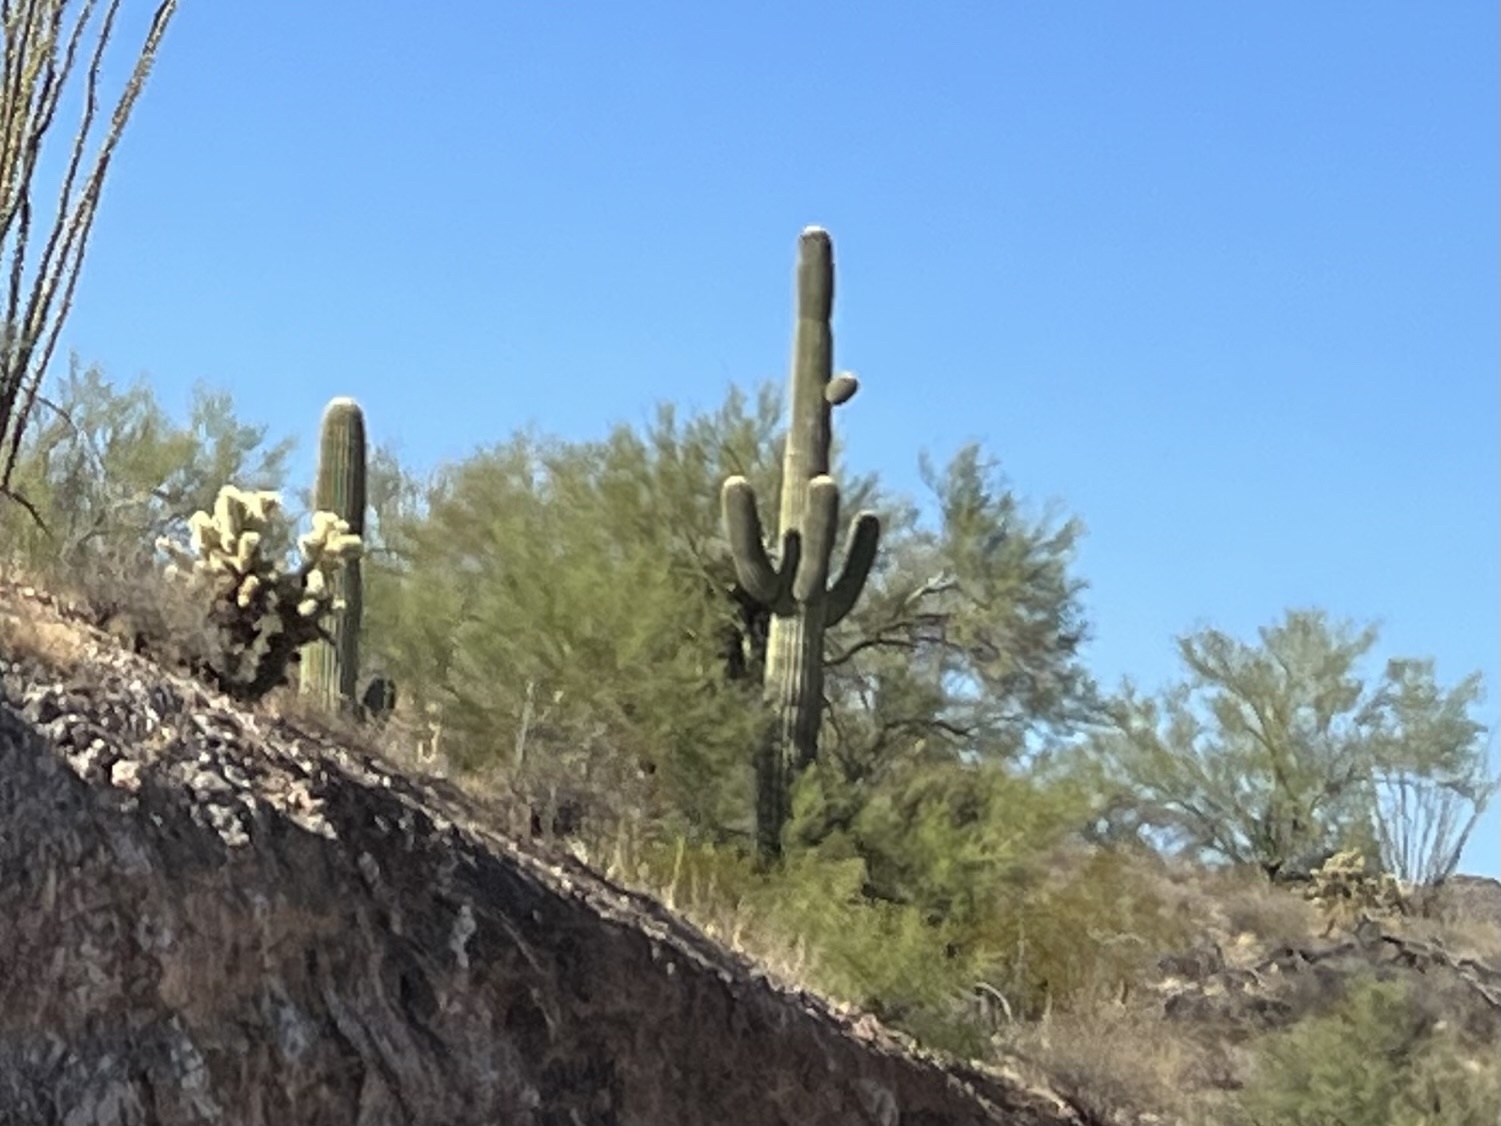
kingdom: Plantae
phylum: Tracheophyta
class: Magnoliopsida
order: Caryophyllales
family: Cactaceae
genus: Carnegiea
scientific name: Carnegiea gigantea
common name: Saguaro
